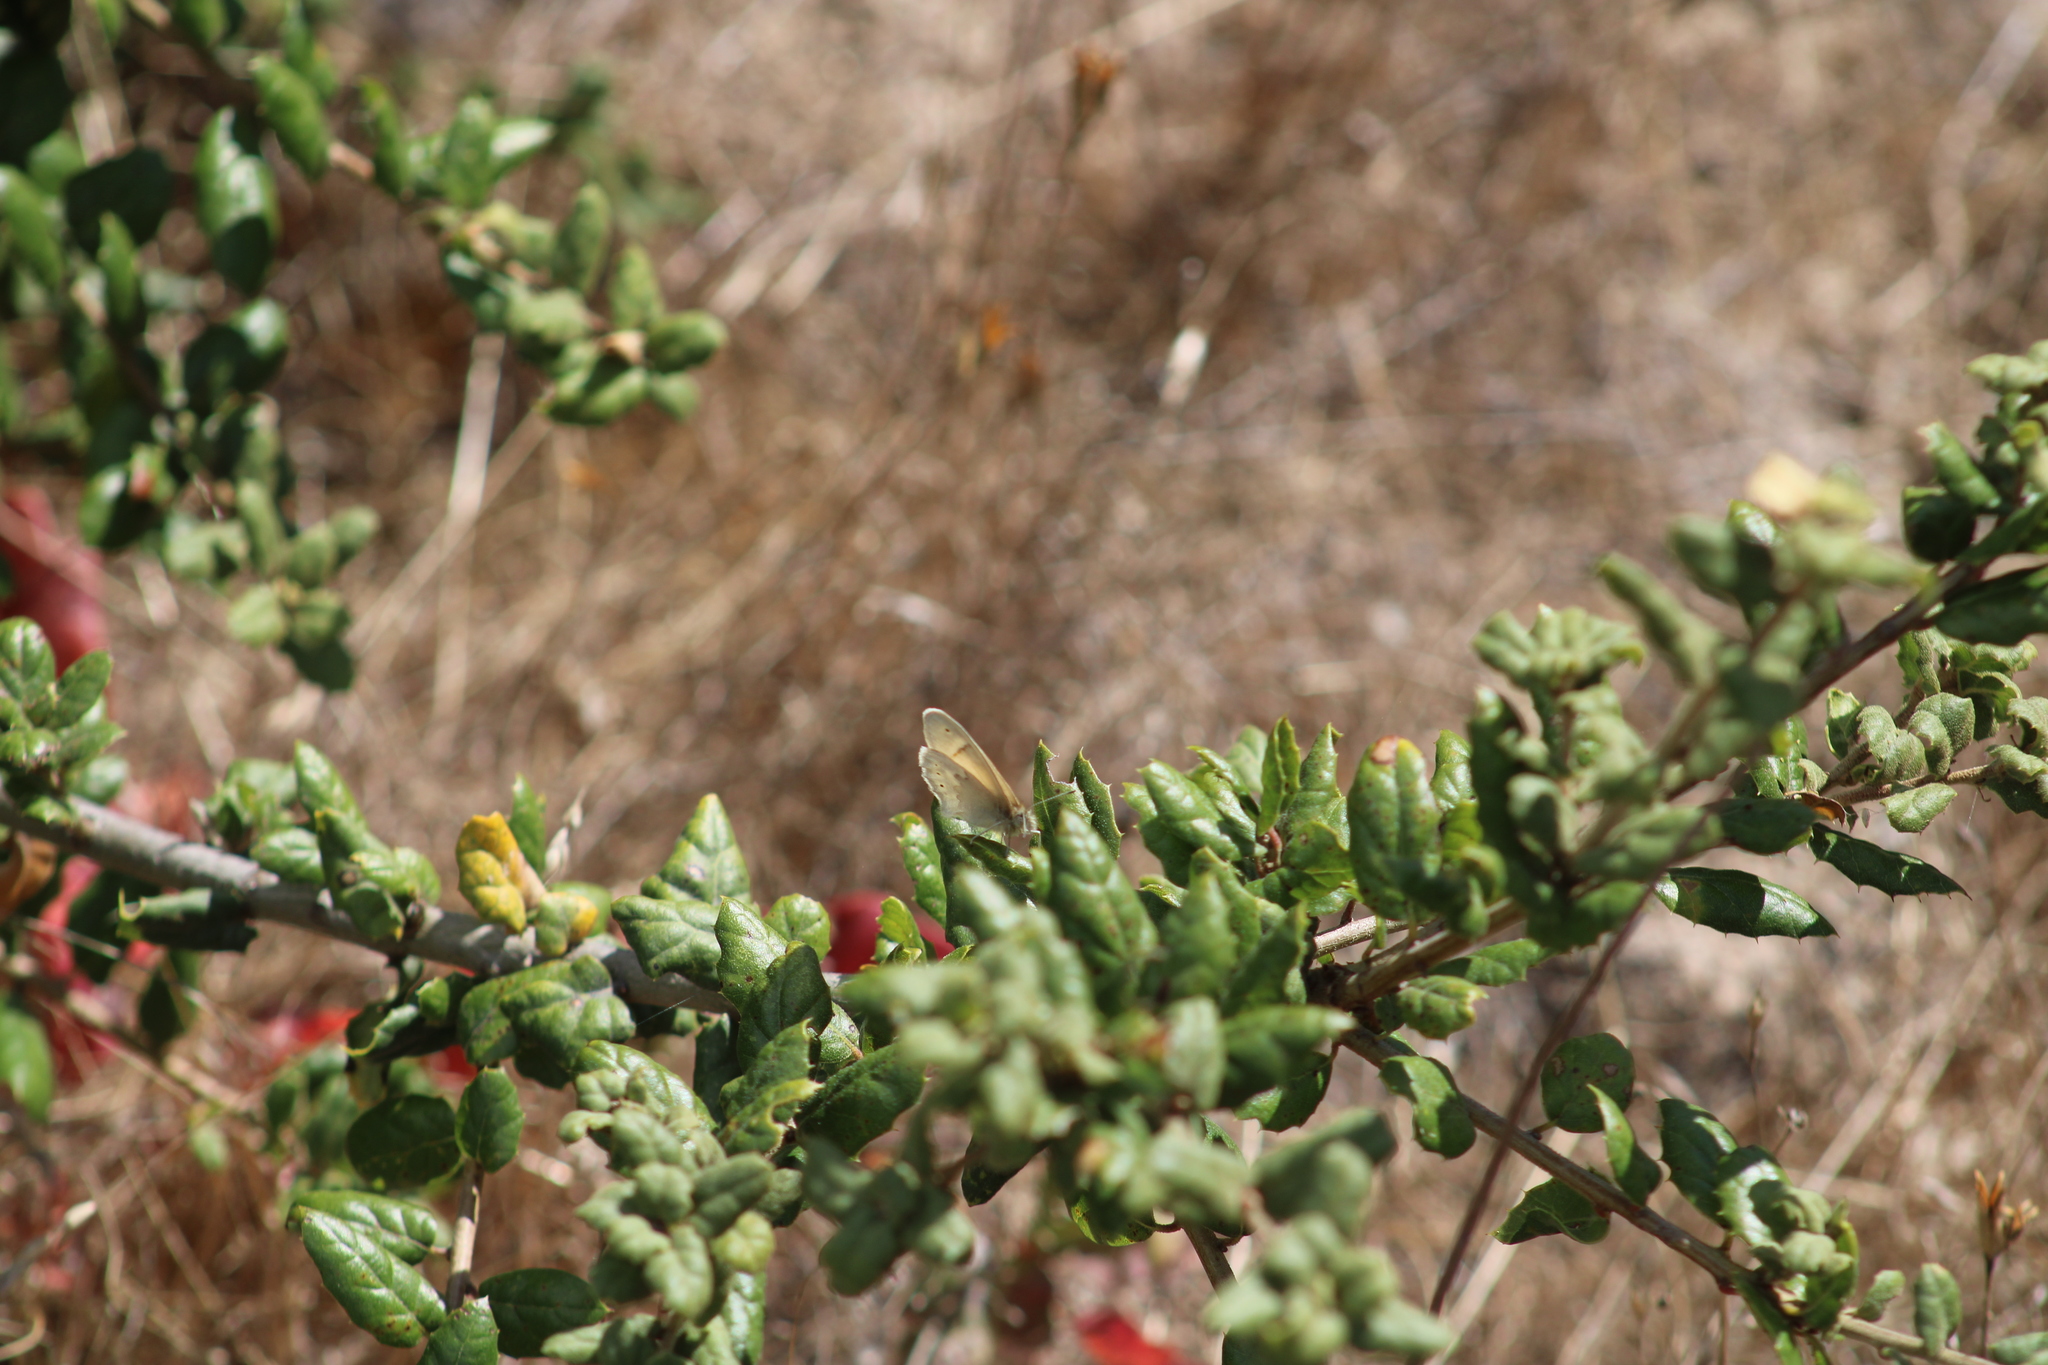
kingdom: Animalia
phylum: Arthropoda
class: Insecta
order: Lepidoptera
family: Nymphalidae
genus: Coenonympha
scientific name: Coenonympha california
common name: Common ringlet
